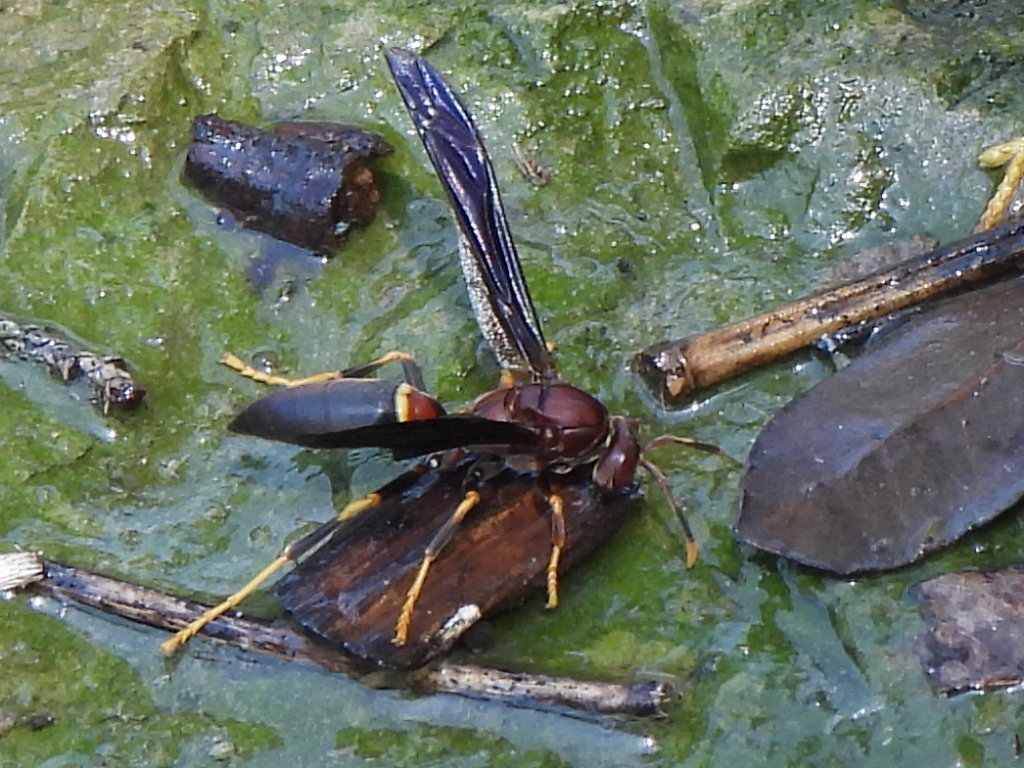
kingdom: Animalia
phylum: Arthropoda
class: Insecta
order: Hymenoptera
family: Eumenidae
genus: Polistes
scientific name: Polistes annularis
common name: Ringed paper wasp
